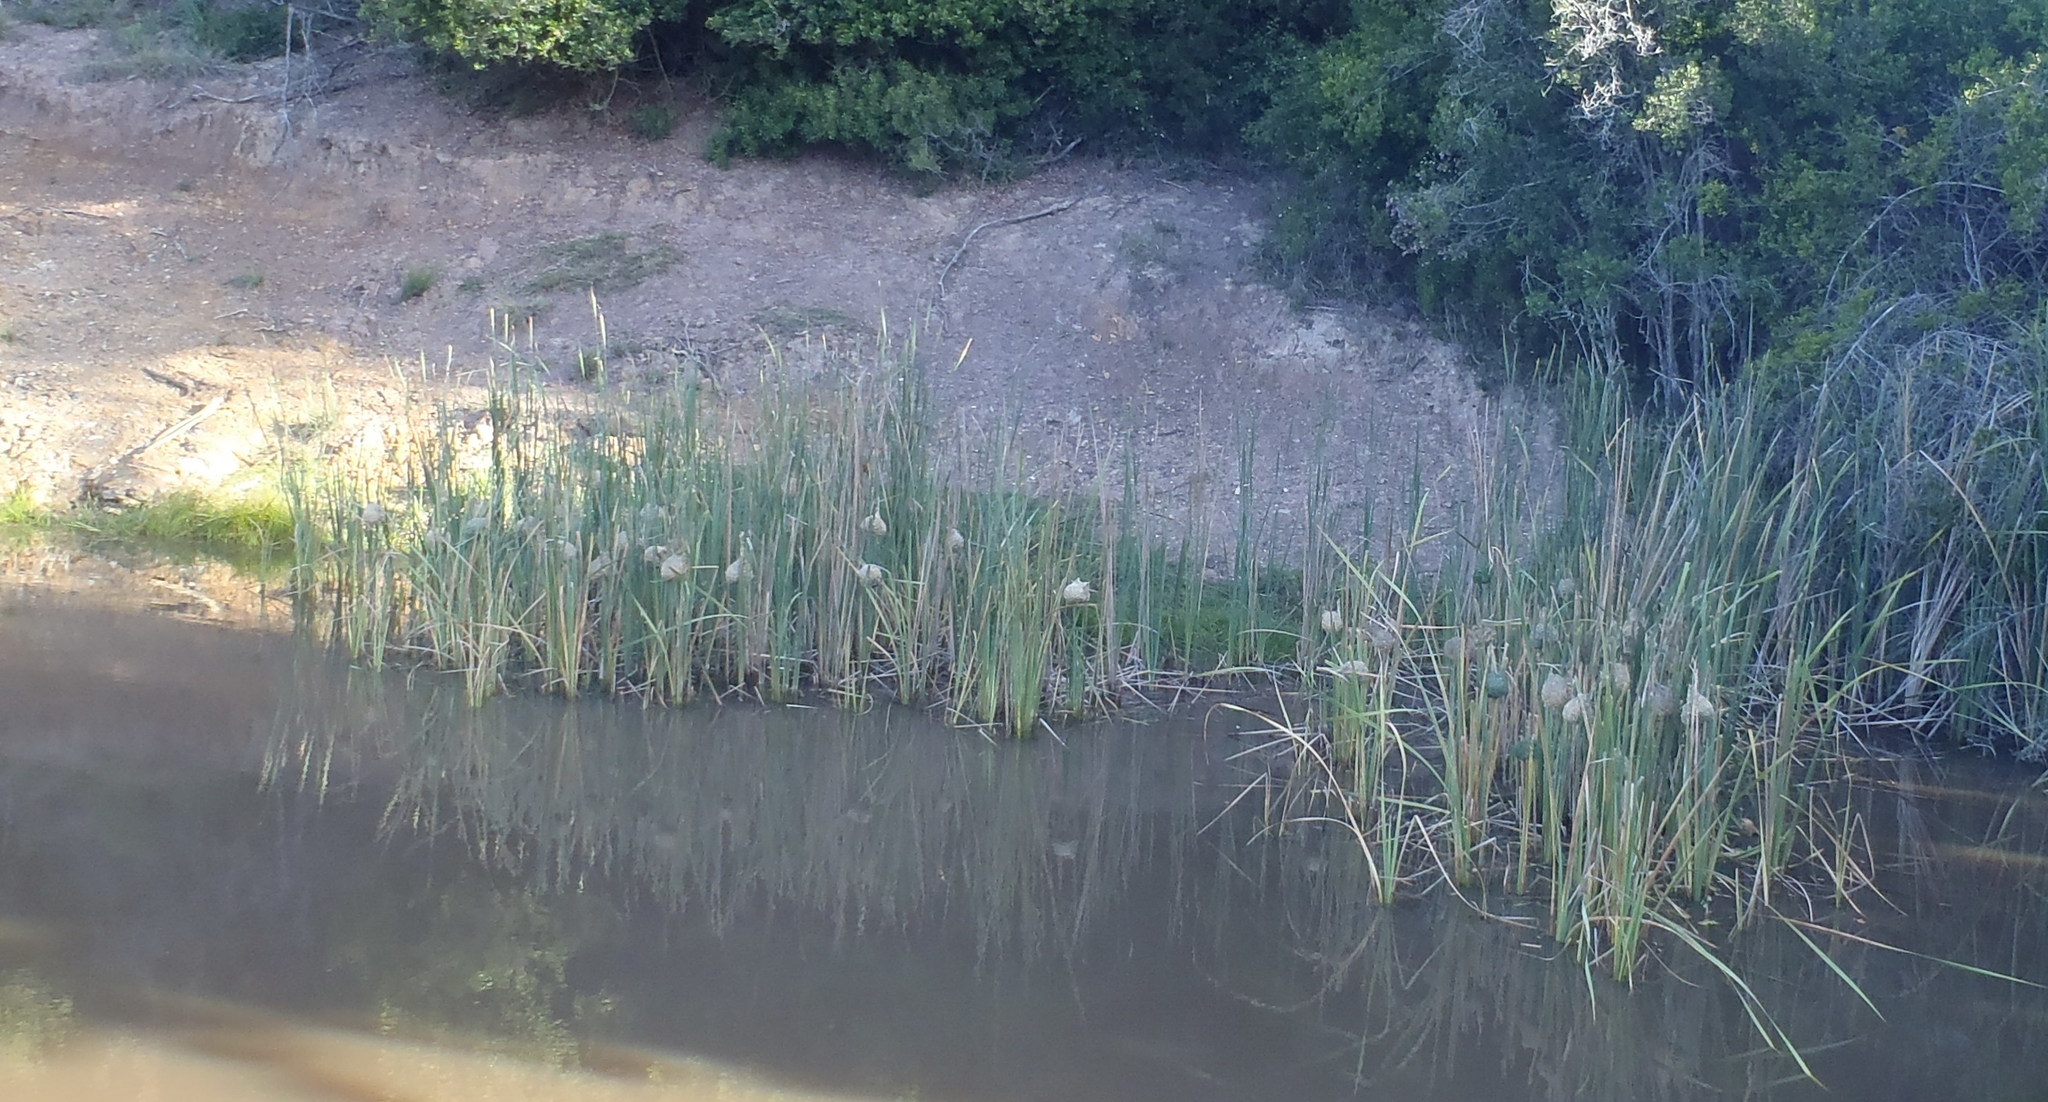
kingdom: Animalia
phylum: Chordata
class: Aves
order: Passeriformes
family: Ploceidae
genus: Ploceus
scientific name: Ploceus capensis
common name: Cape weaver
